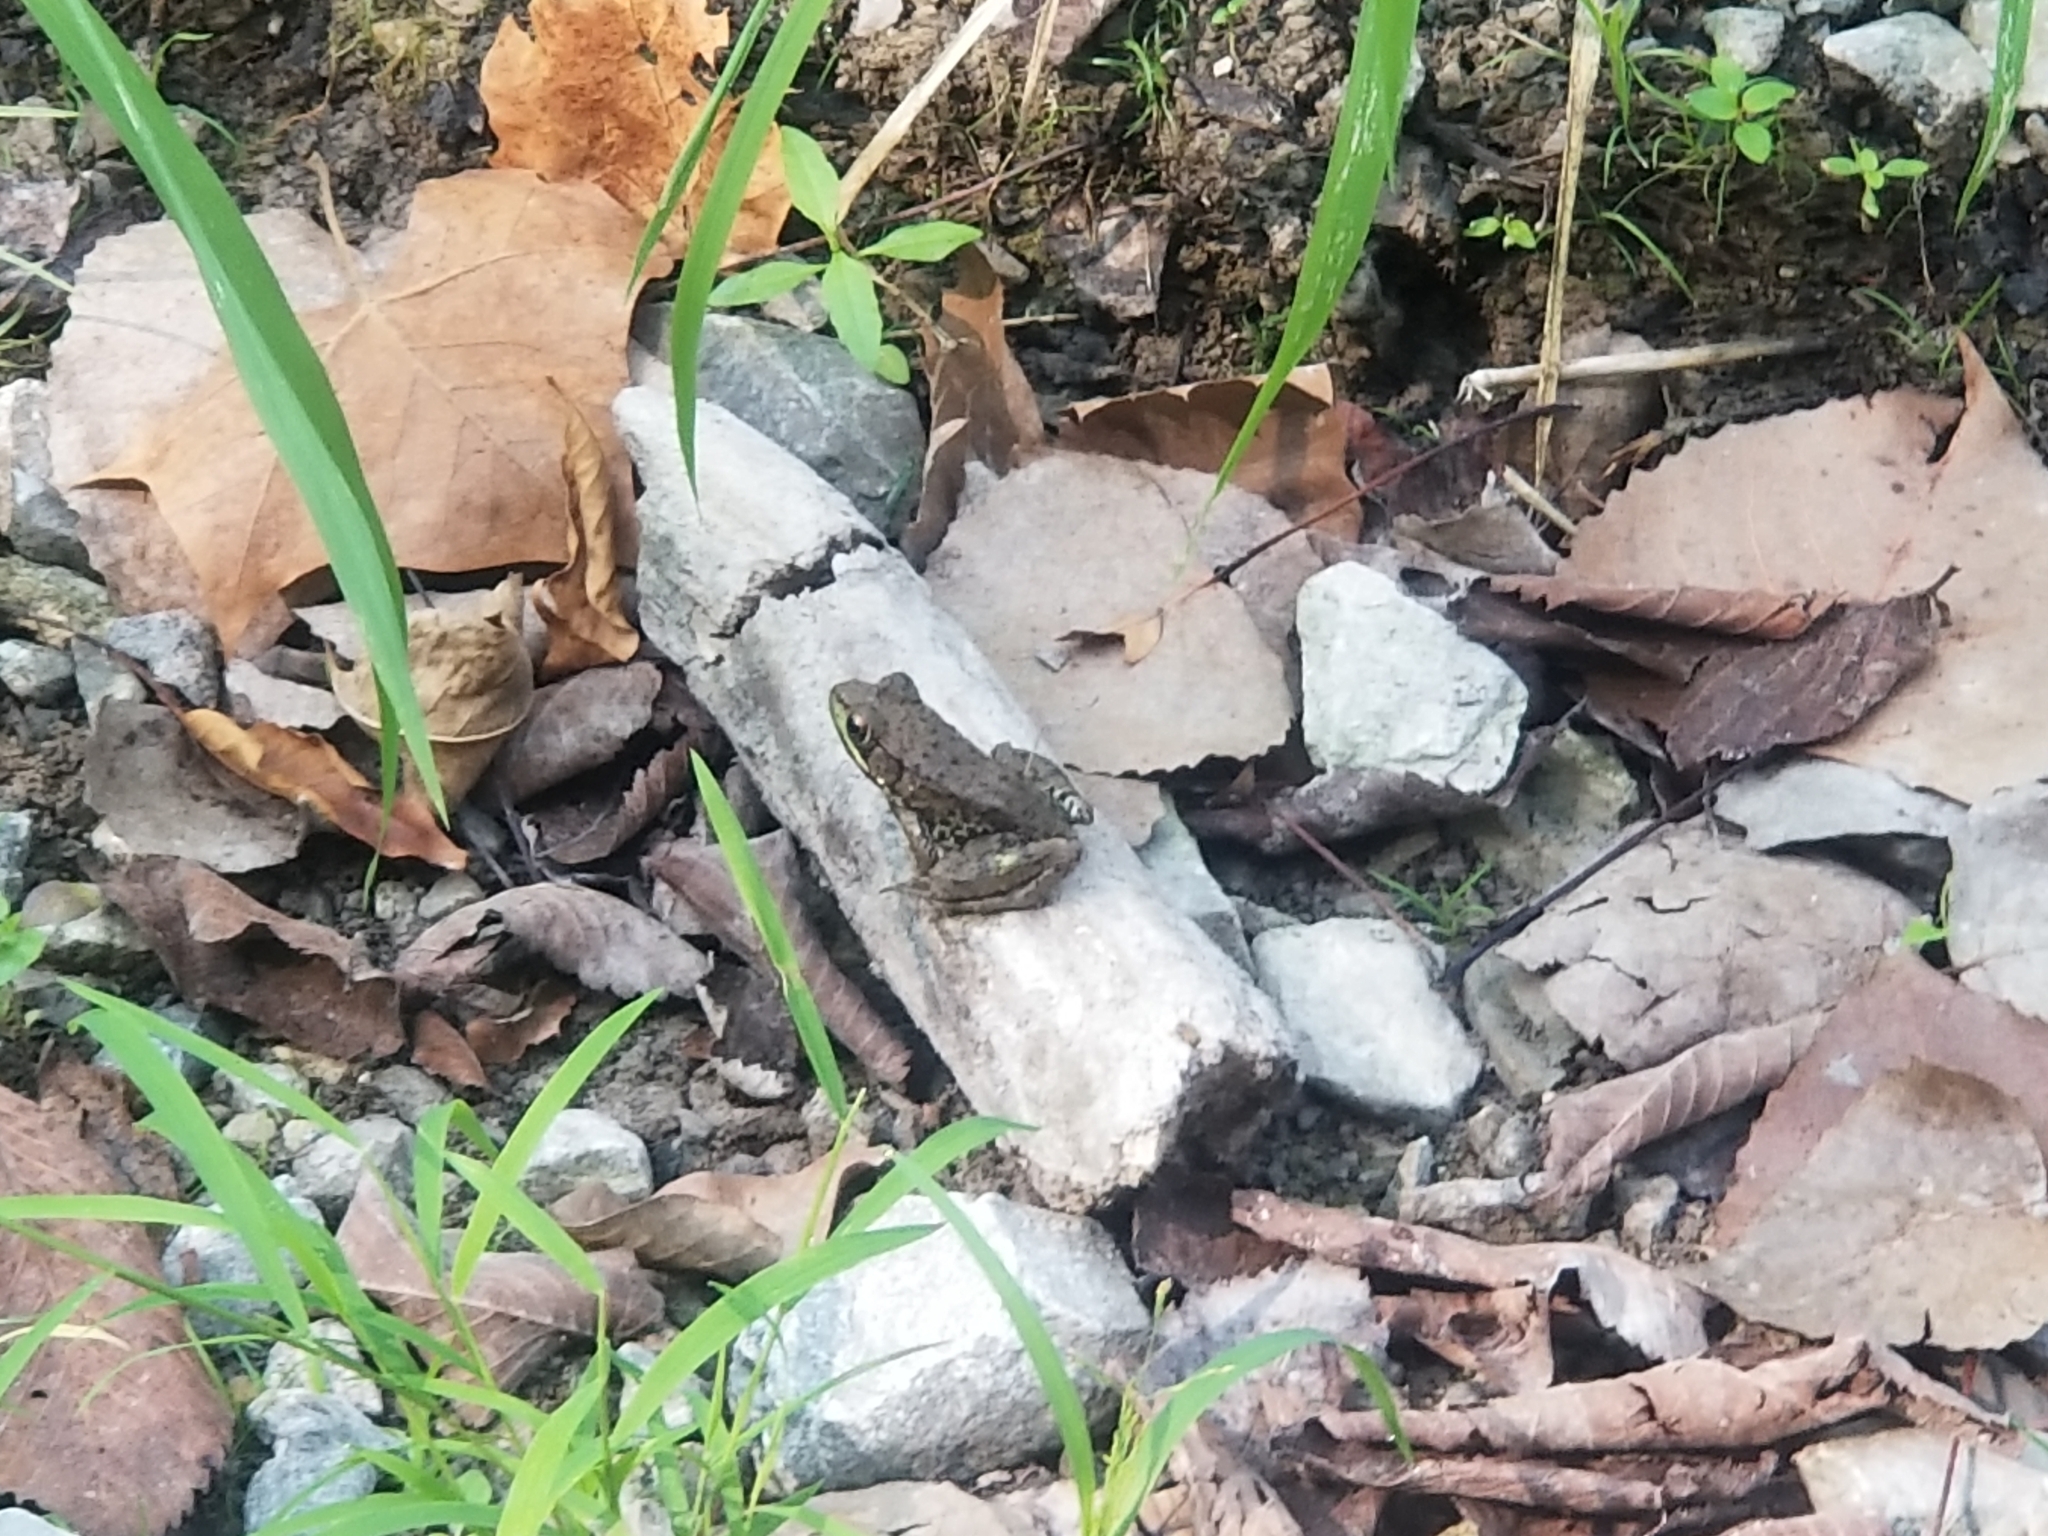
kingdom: Animalia
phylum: Chordata
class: Amphibia
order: Anura
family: Ranidae
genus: Lithobates
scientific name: Lithobates clamitans
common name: Green frog
